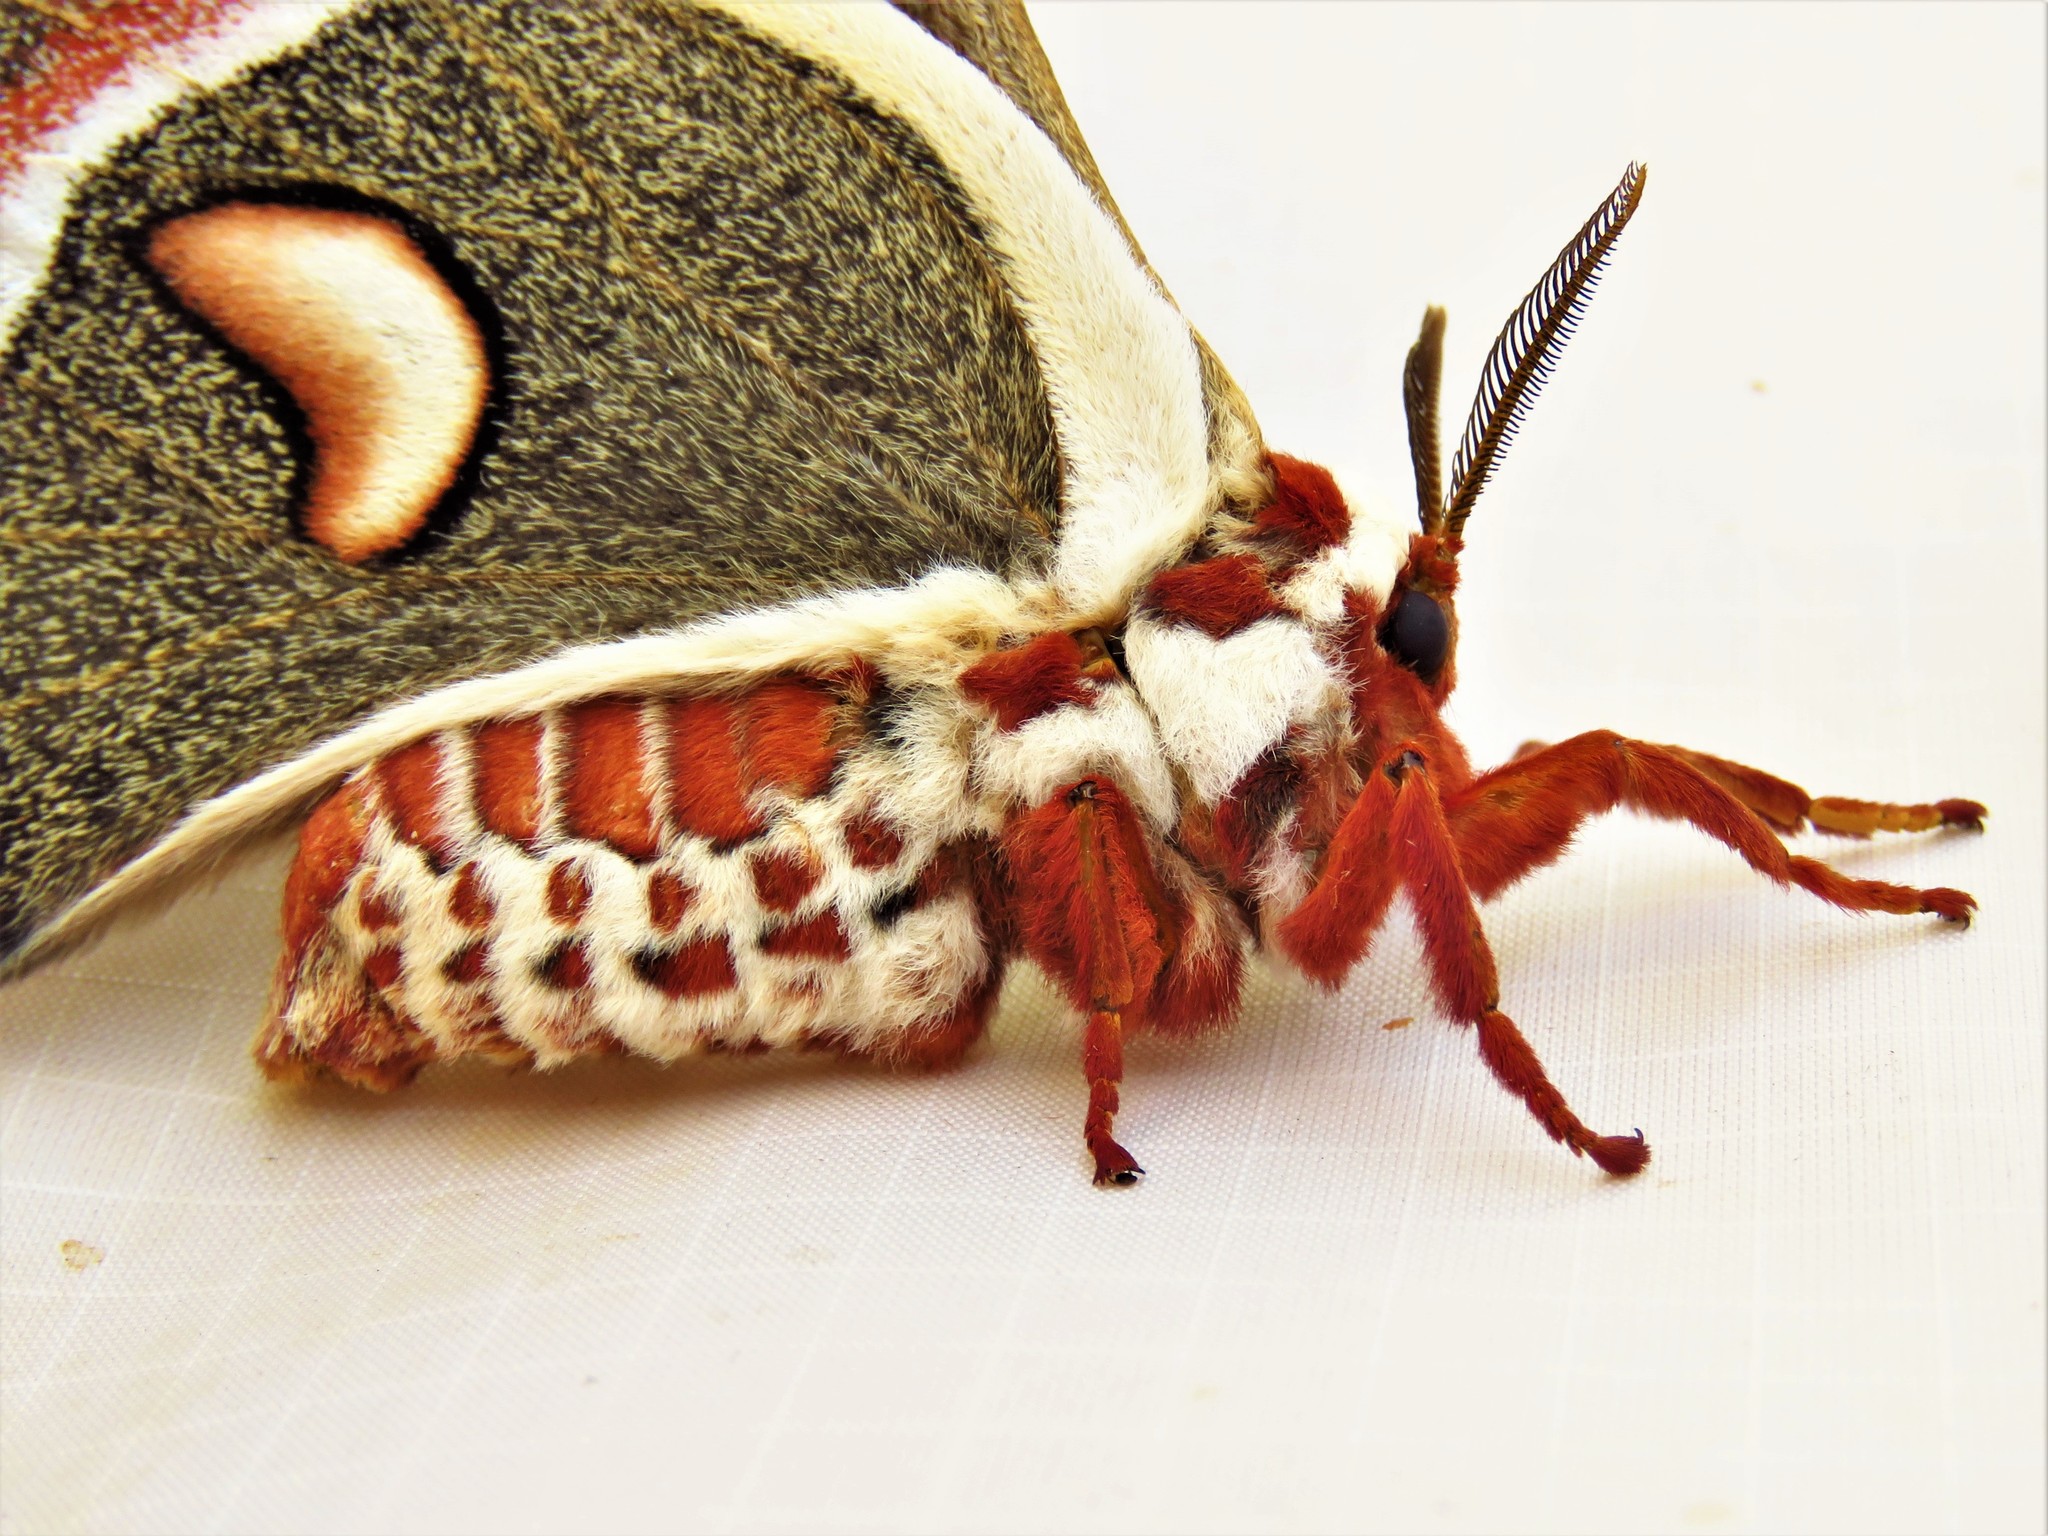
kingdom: Animalia
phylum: Arthropoda
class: Insecta
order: Lepidoptera
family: Saturniidae
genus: Hyalophora
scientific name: Hyalophora cecropia
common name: Cecropia silkmoth
